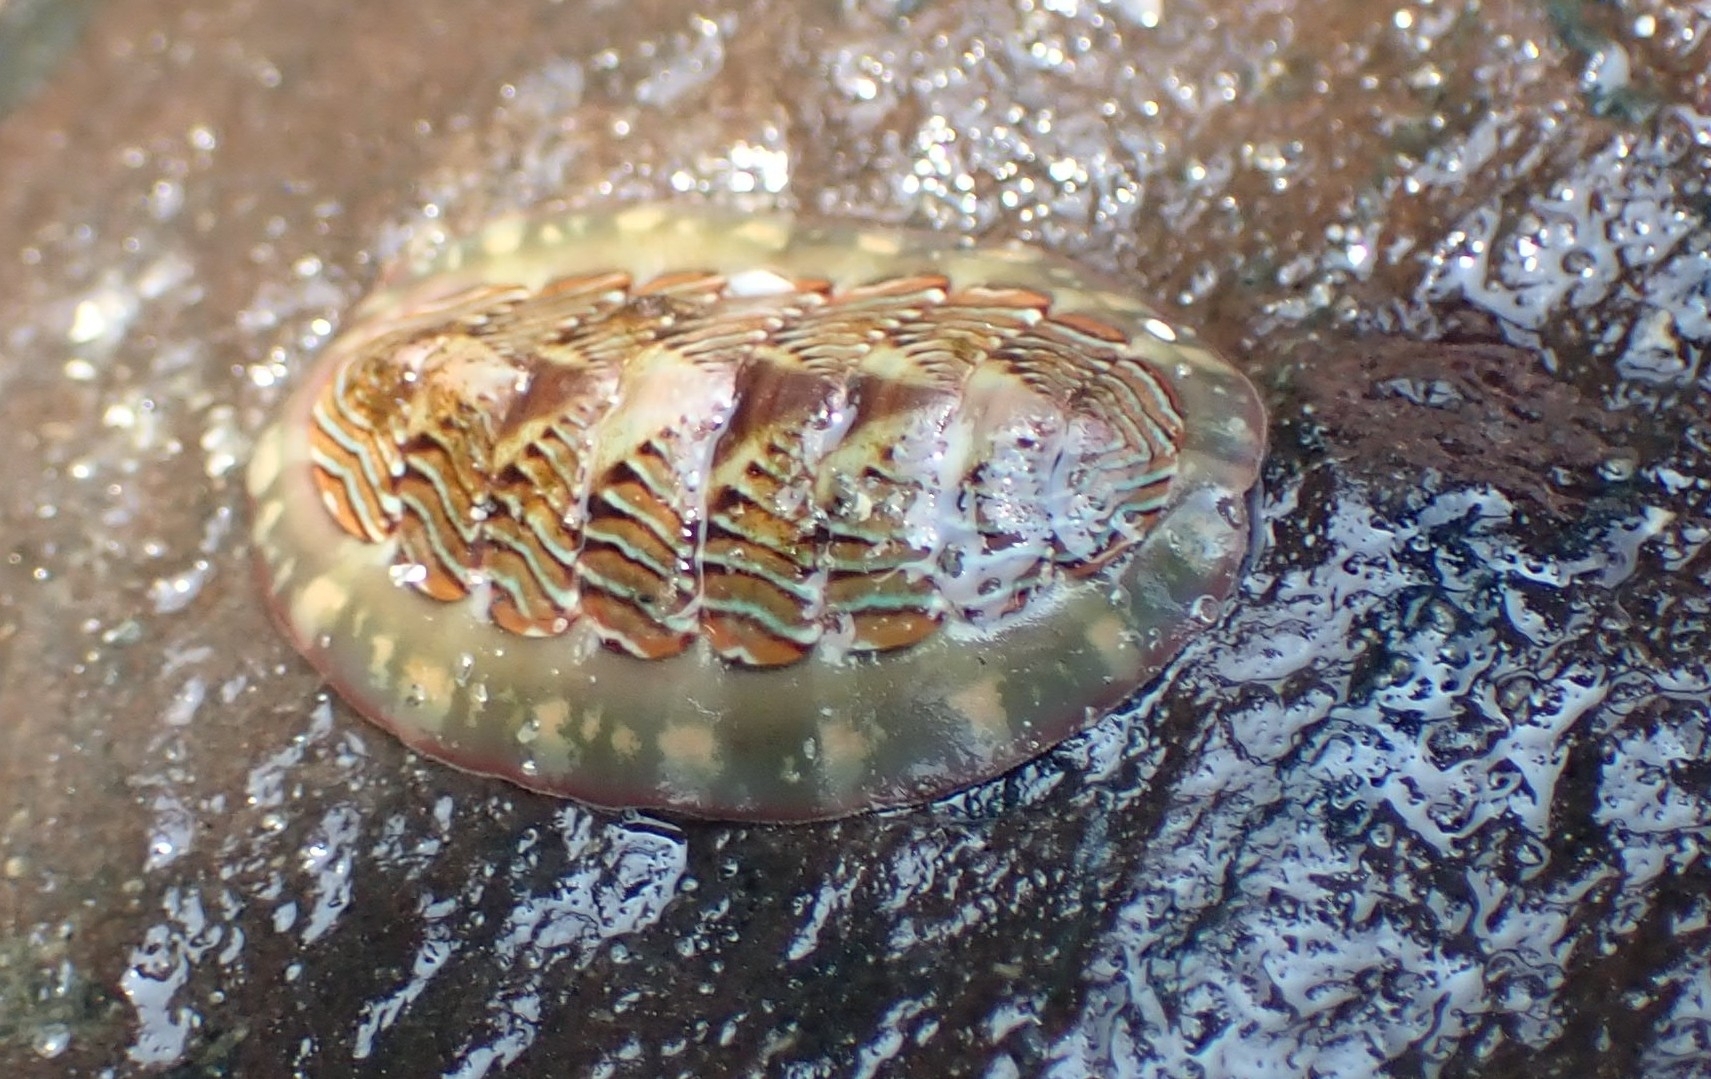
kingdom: Animalia
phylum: Mollusca
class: Polyplacophora
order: Chitonida
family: Tonicellidae
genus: Tonicella
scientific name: Tonicella lineata
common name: Lined chiton
